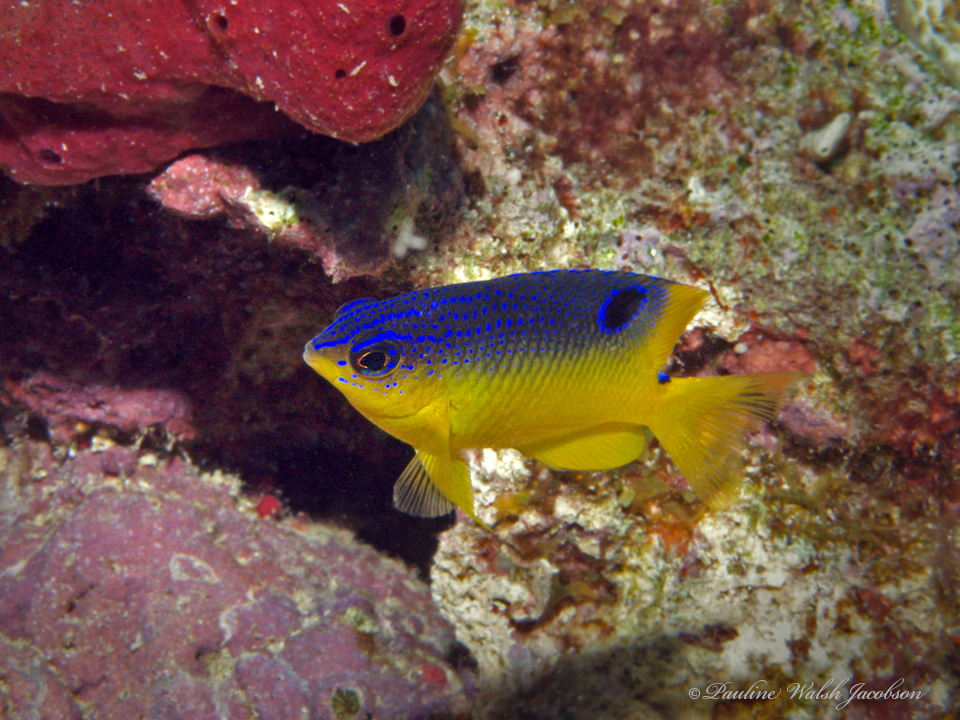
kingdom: Animalia
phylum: Chordata
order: Perciformes
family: Pomacentridae
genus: Stegastes
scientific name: Stegastes xanthurus
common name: Cocoa damselfish
